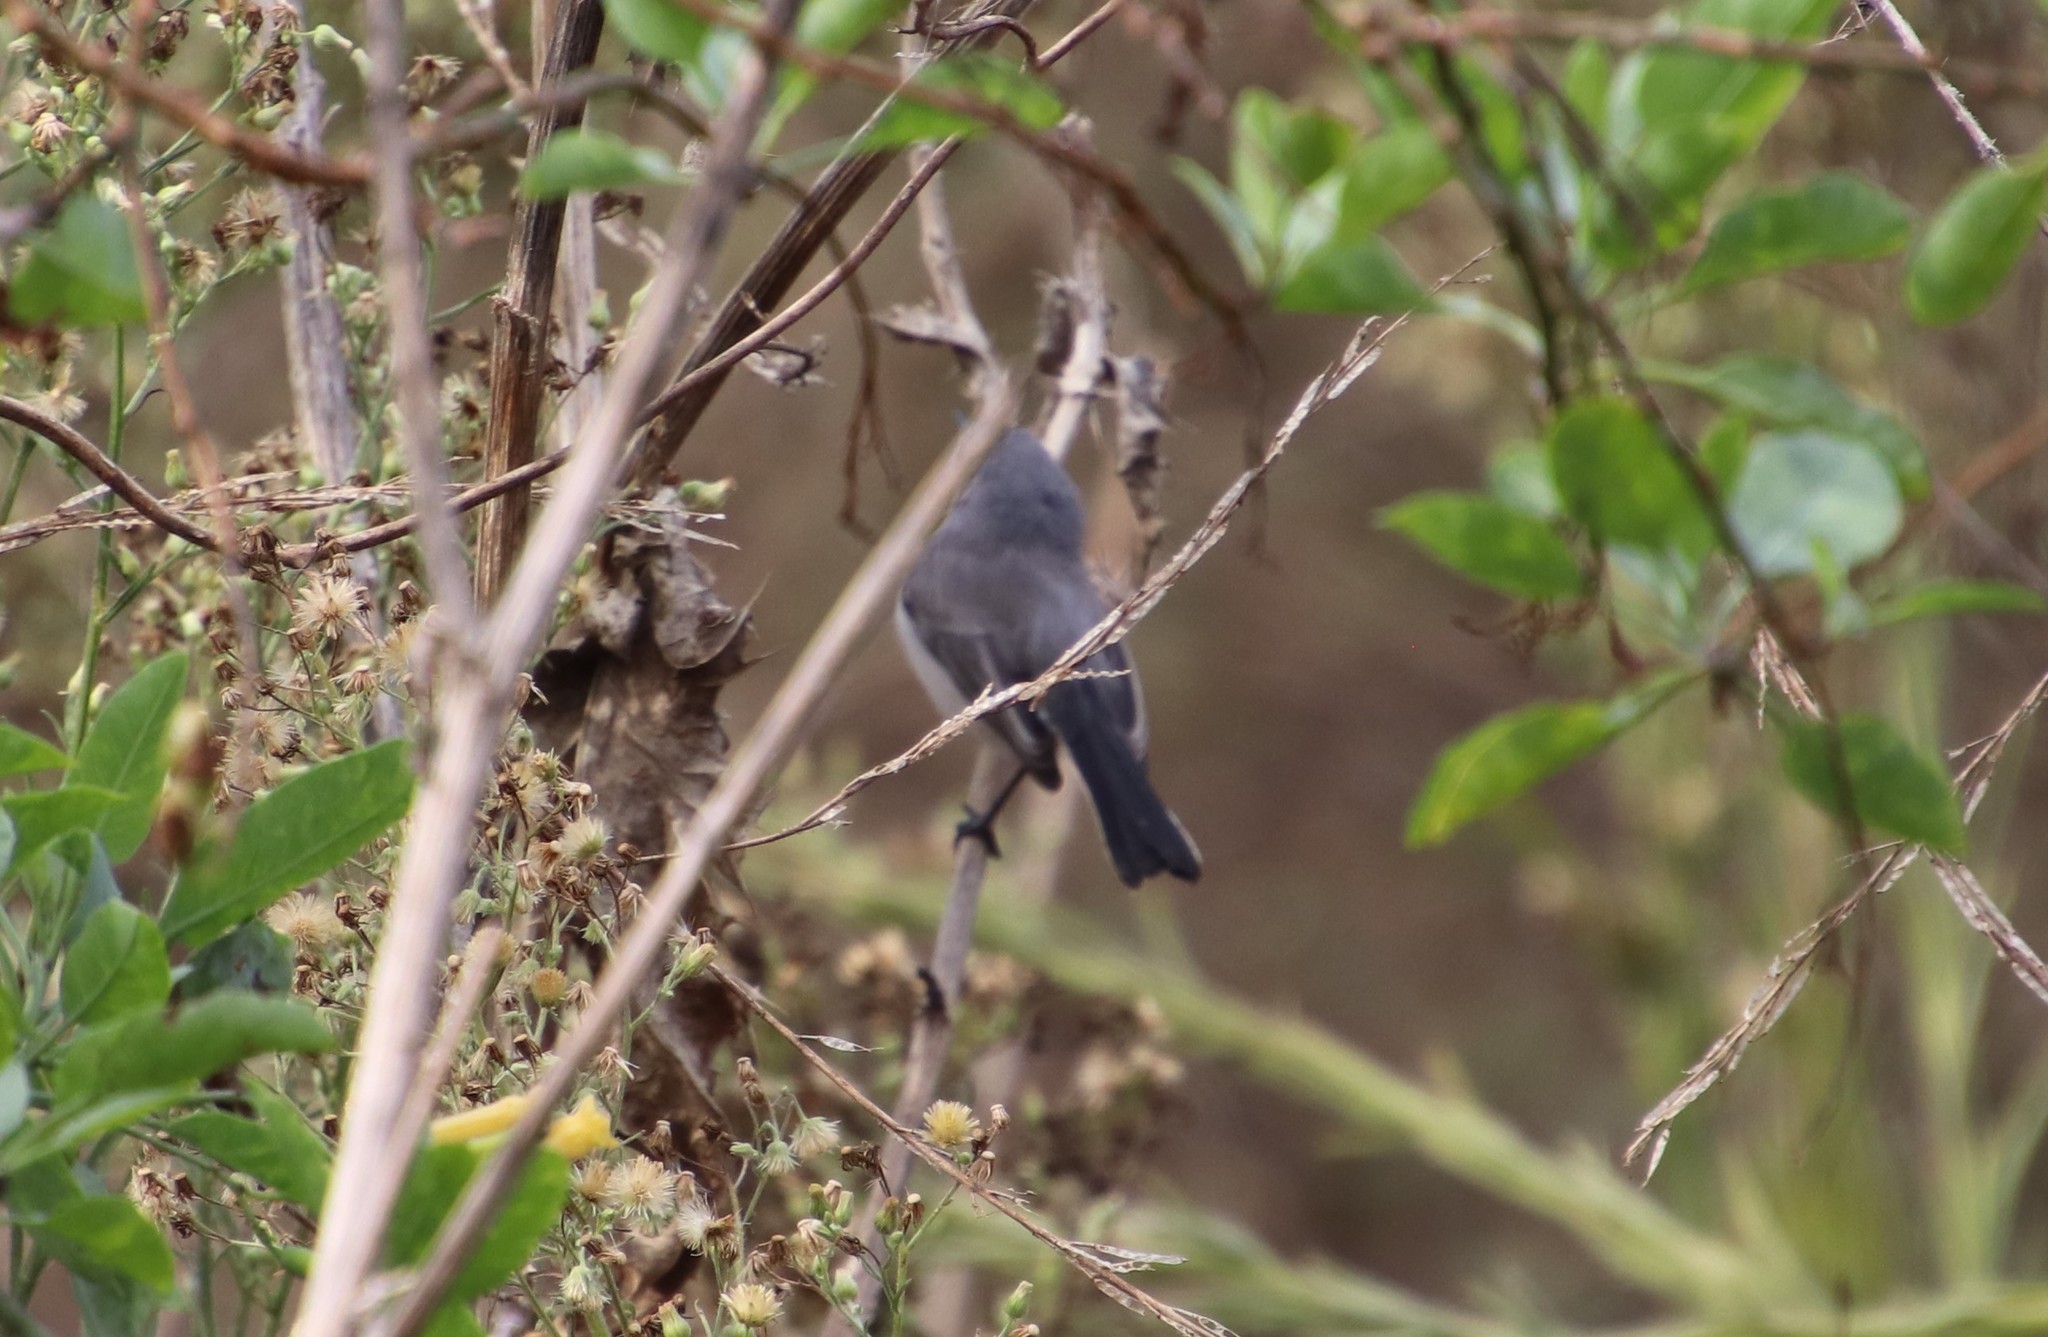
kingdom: Animalia
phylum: Chordata
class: Aves
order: Passeriformes
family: Polioptilidae
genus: Polioptila
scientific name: Polioptila caerulea
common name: Blue-gray gnatcatcher
